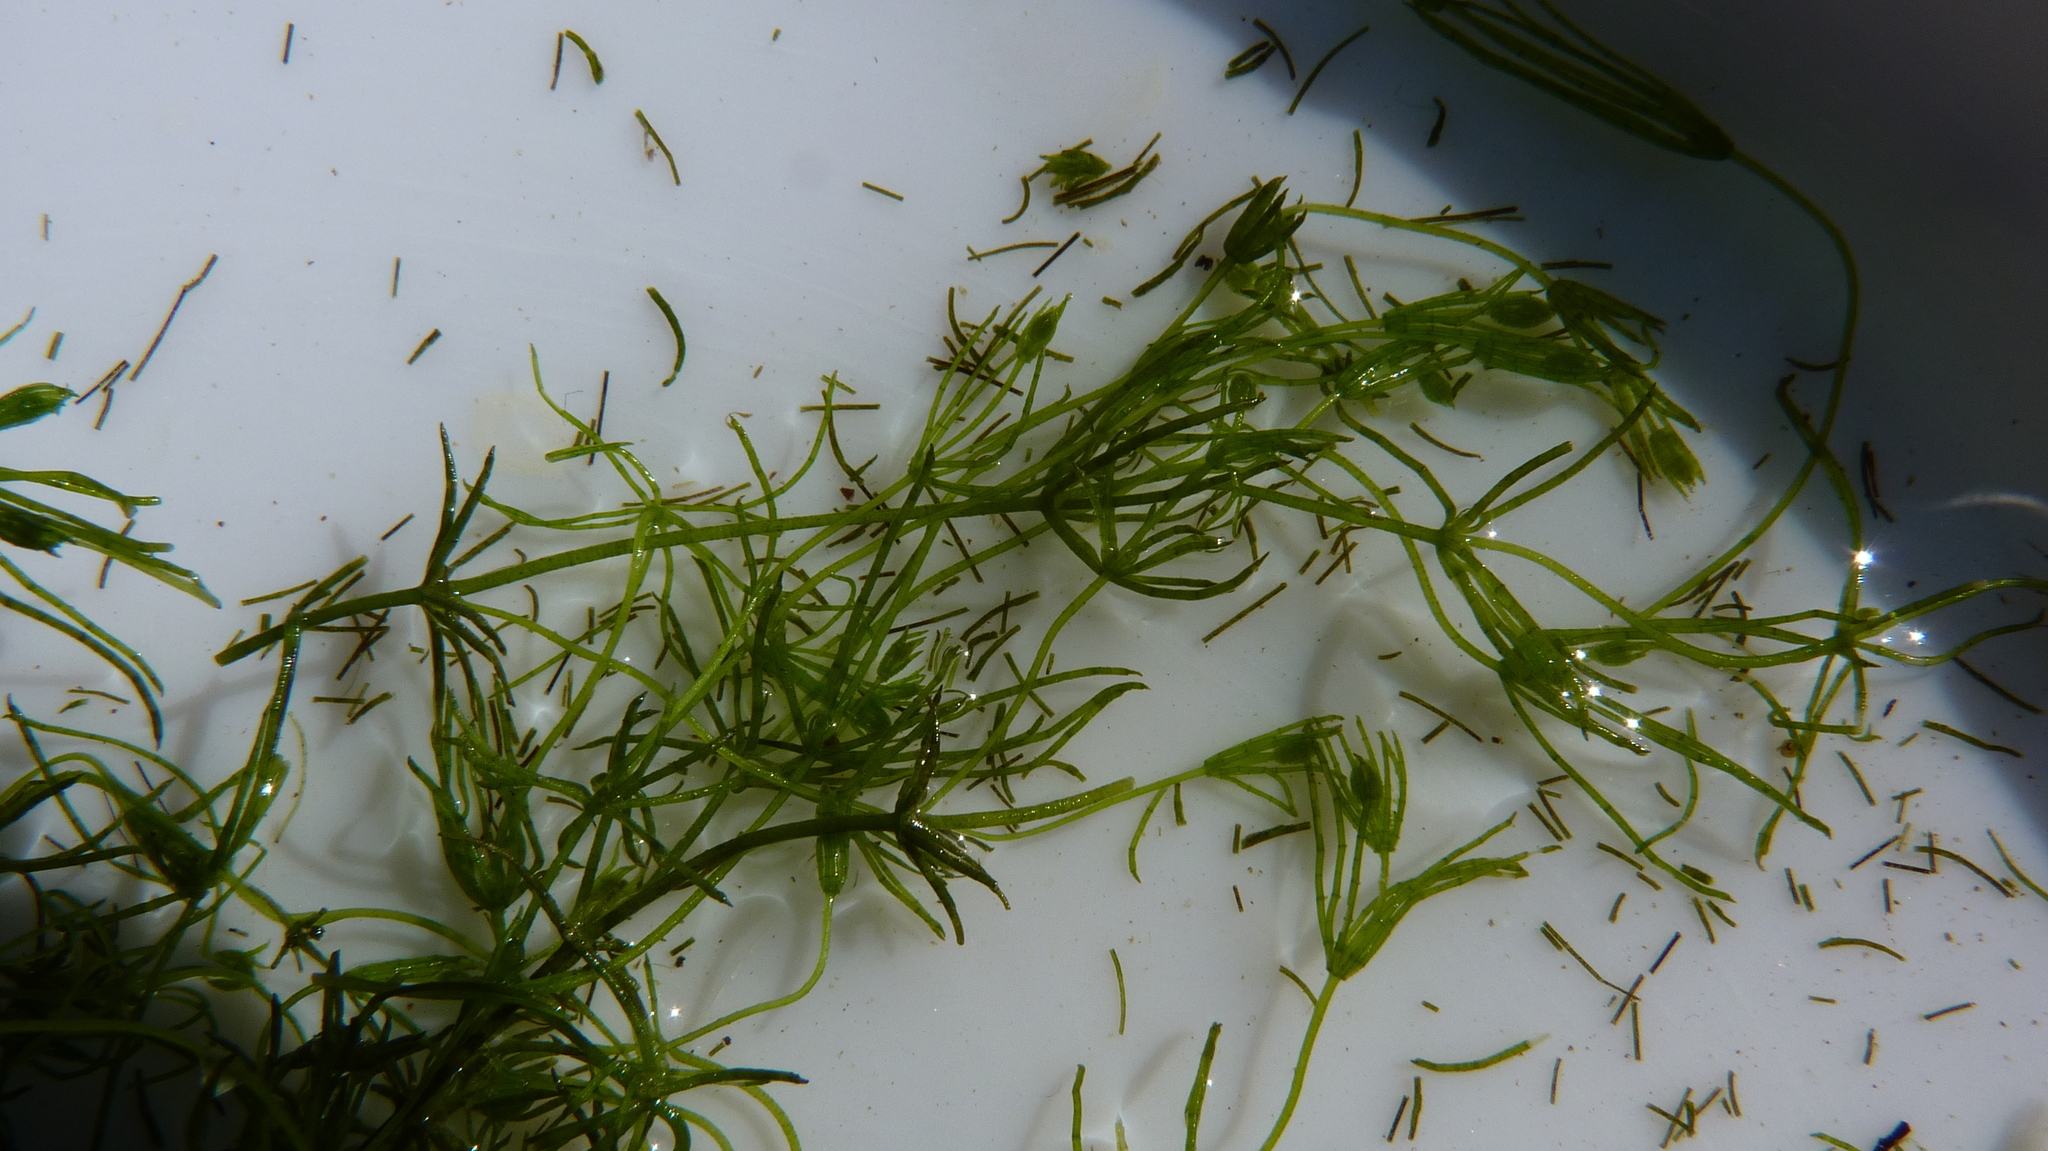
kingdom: Plantae
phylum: Charophyta
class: Charophyceae
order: Charales
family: Characeae
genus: Chara
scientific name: Chara
